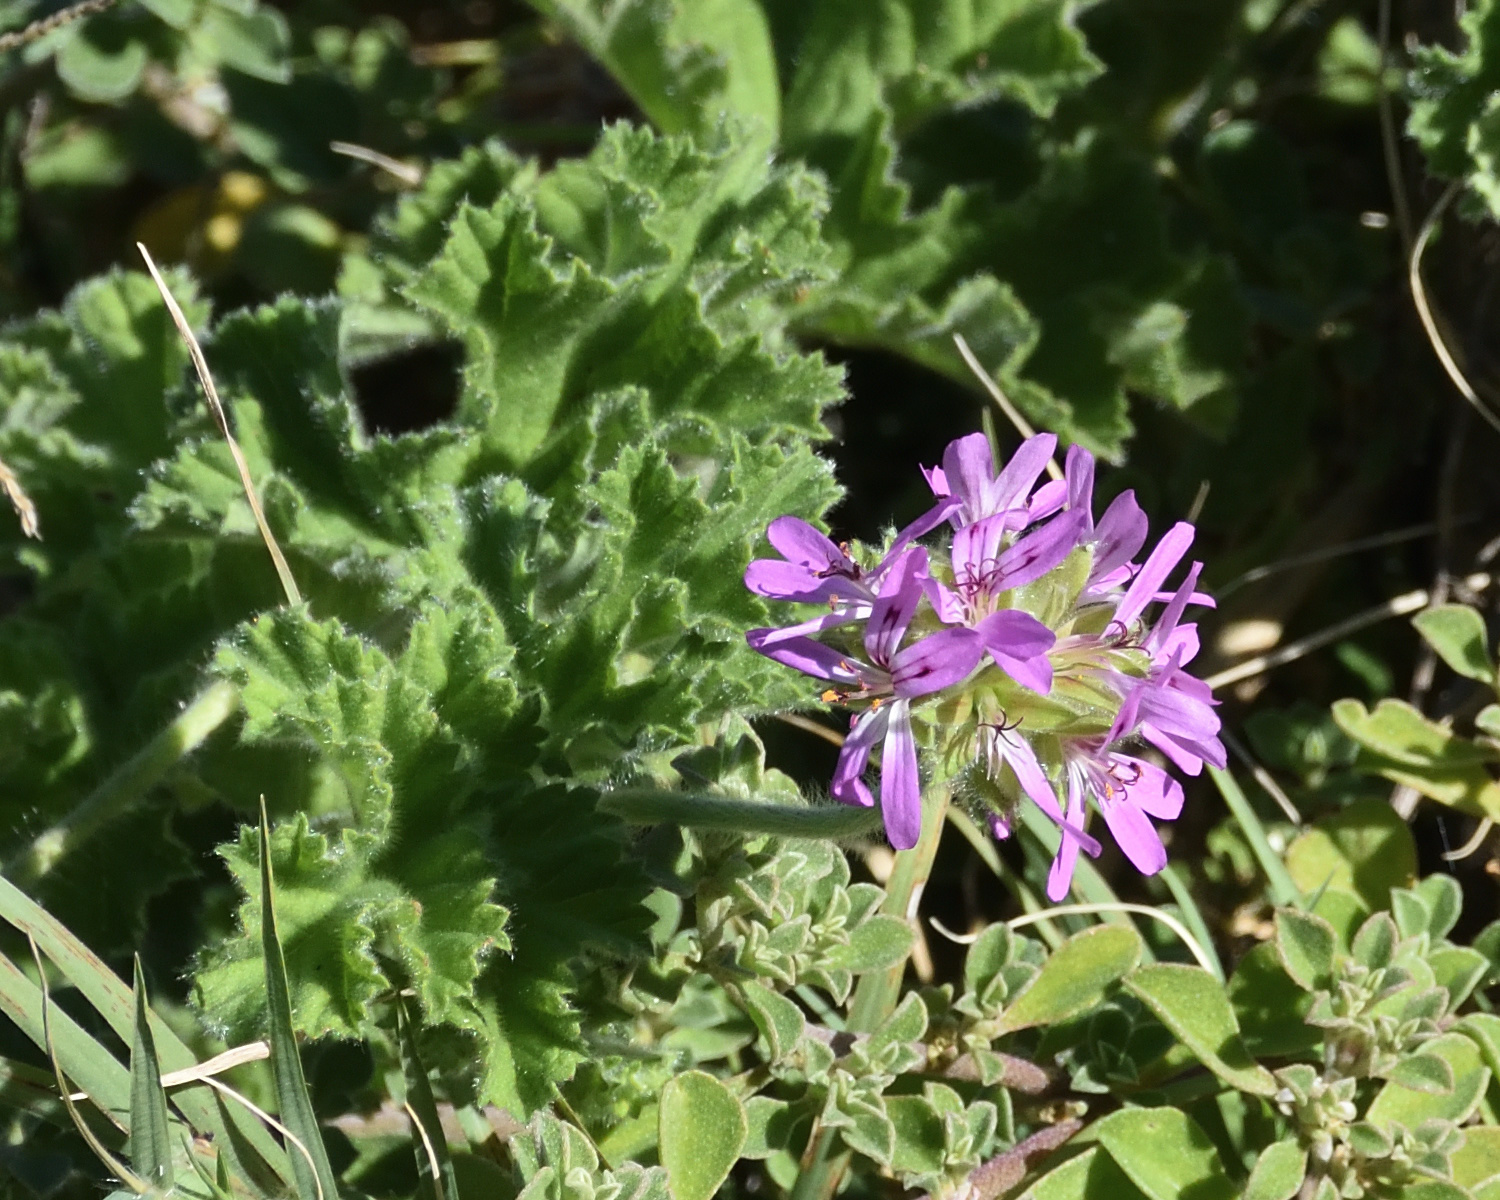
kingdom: Plantae
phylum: Tracheophyta
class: Magnoliopsida
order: Geraniales
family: Geraniaceae
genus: Pelargonium
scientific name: Pelargonium capitatum
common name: Rose scented geranium
